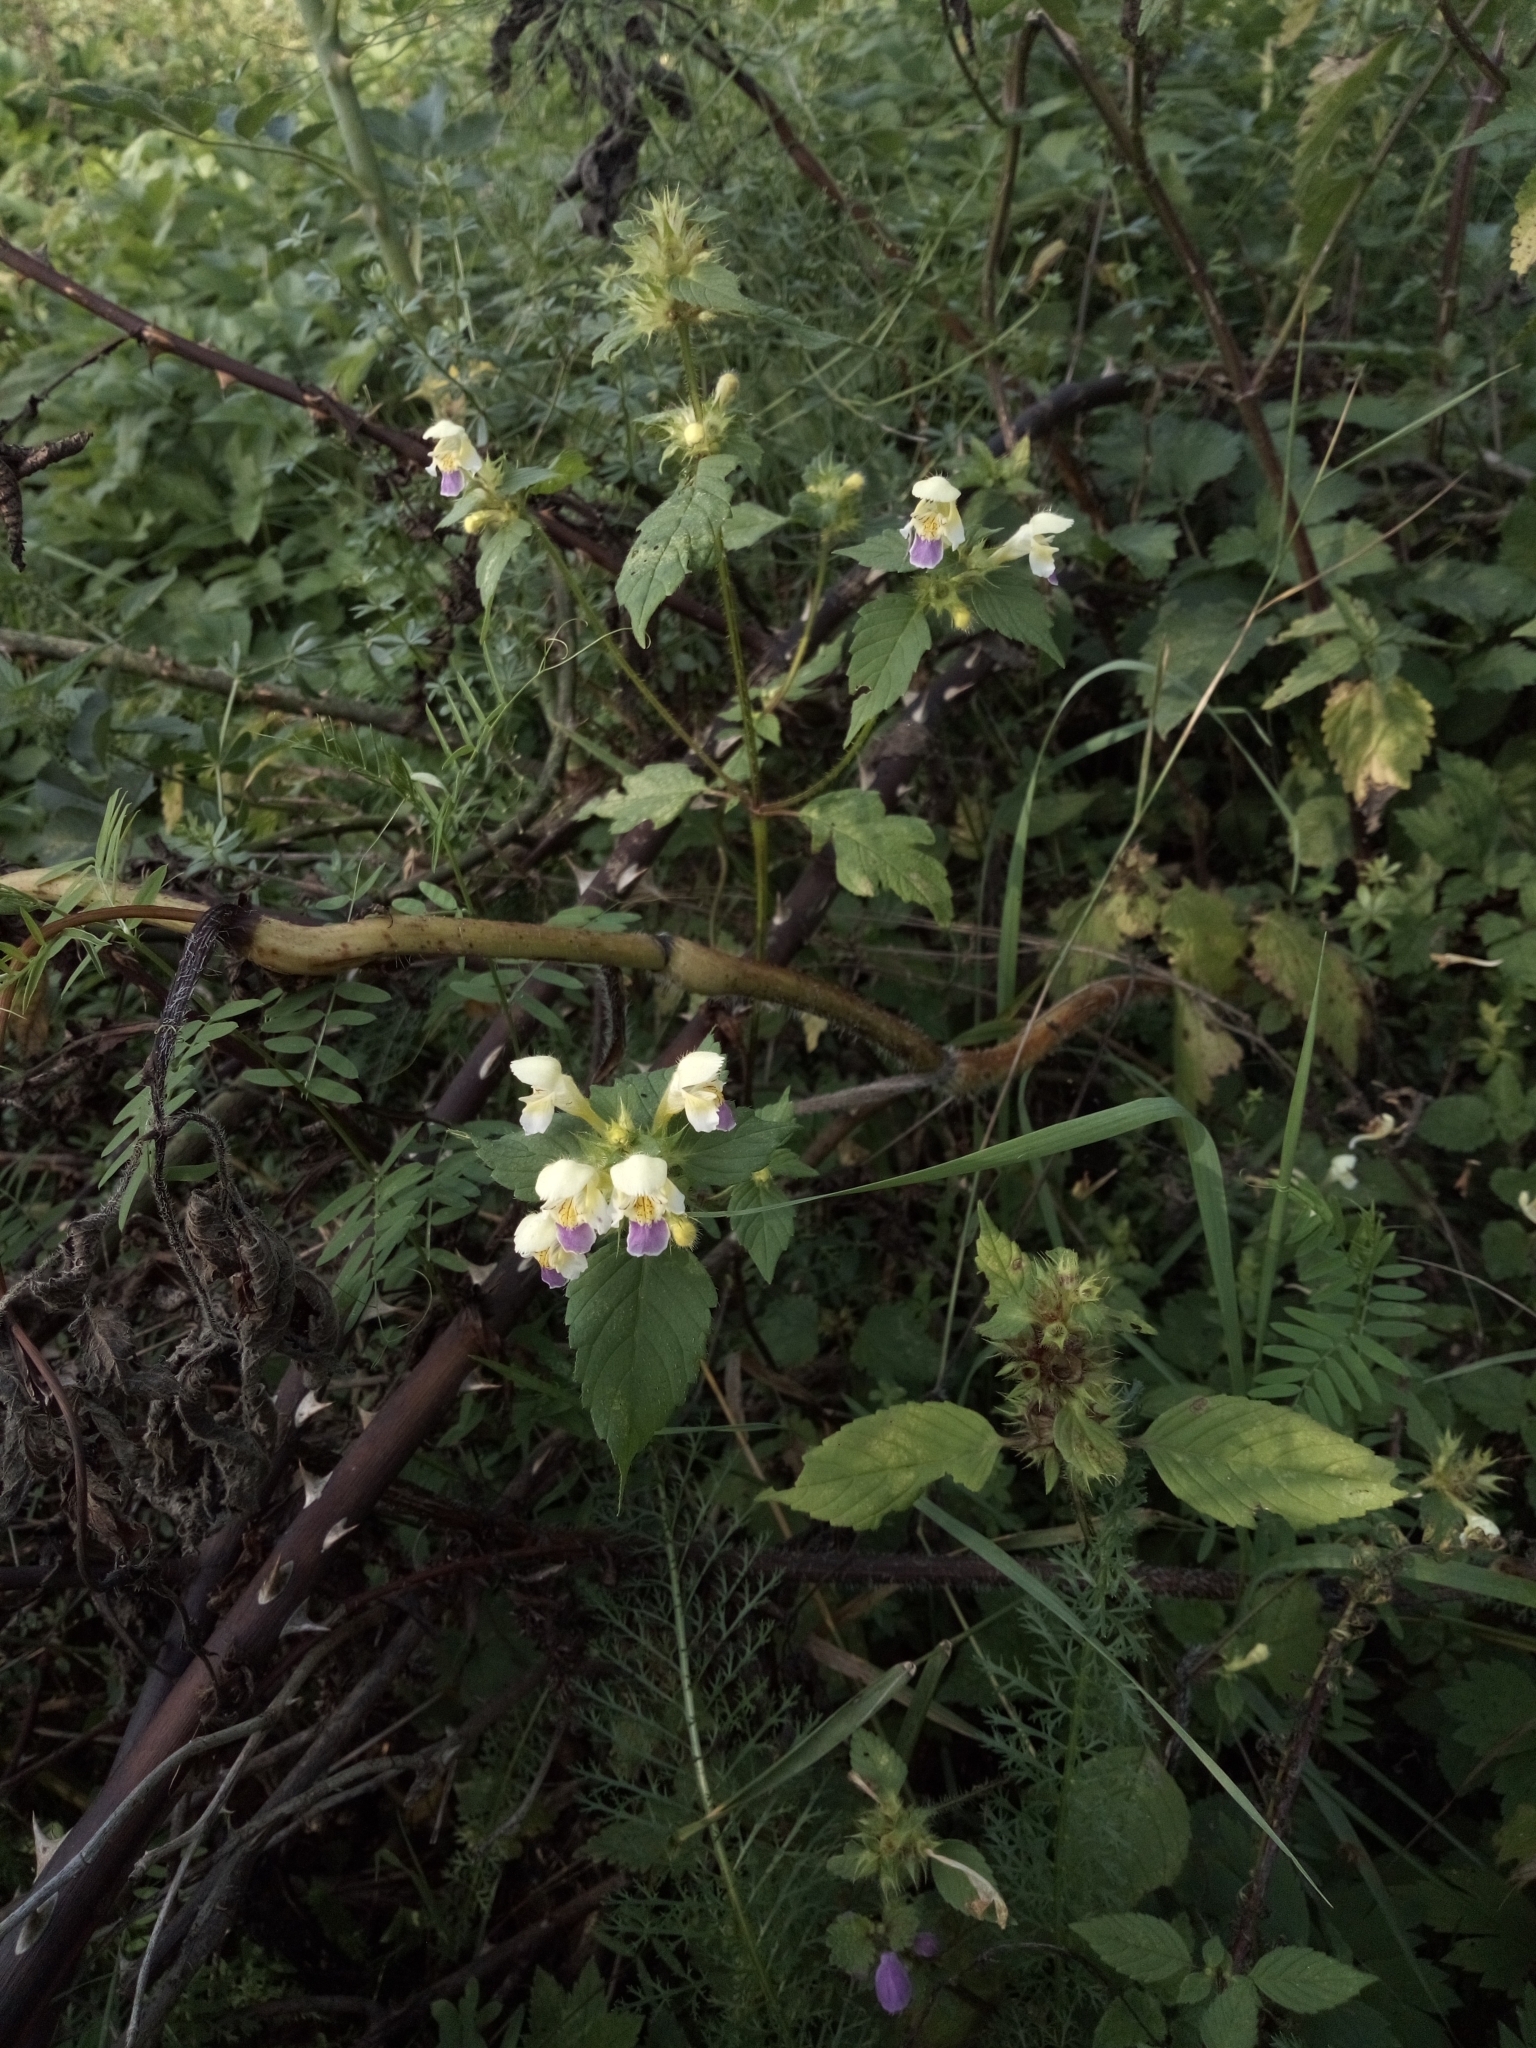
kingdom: Plantae
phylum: Tracheophyta
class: Magnoliopsida
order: Lamiales
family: Lamiaceae
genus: Galeopsis
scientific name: Galeopsis speciosa
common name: Large-flowered hemp-nettle
